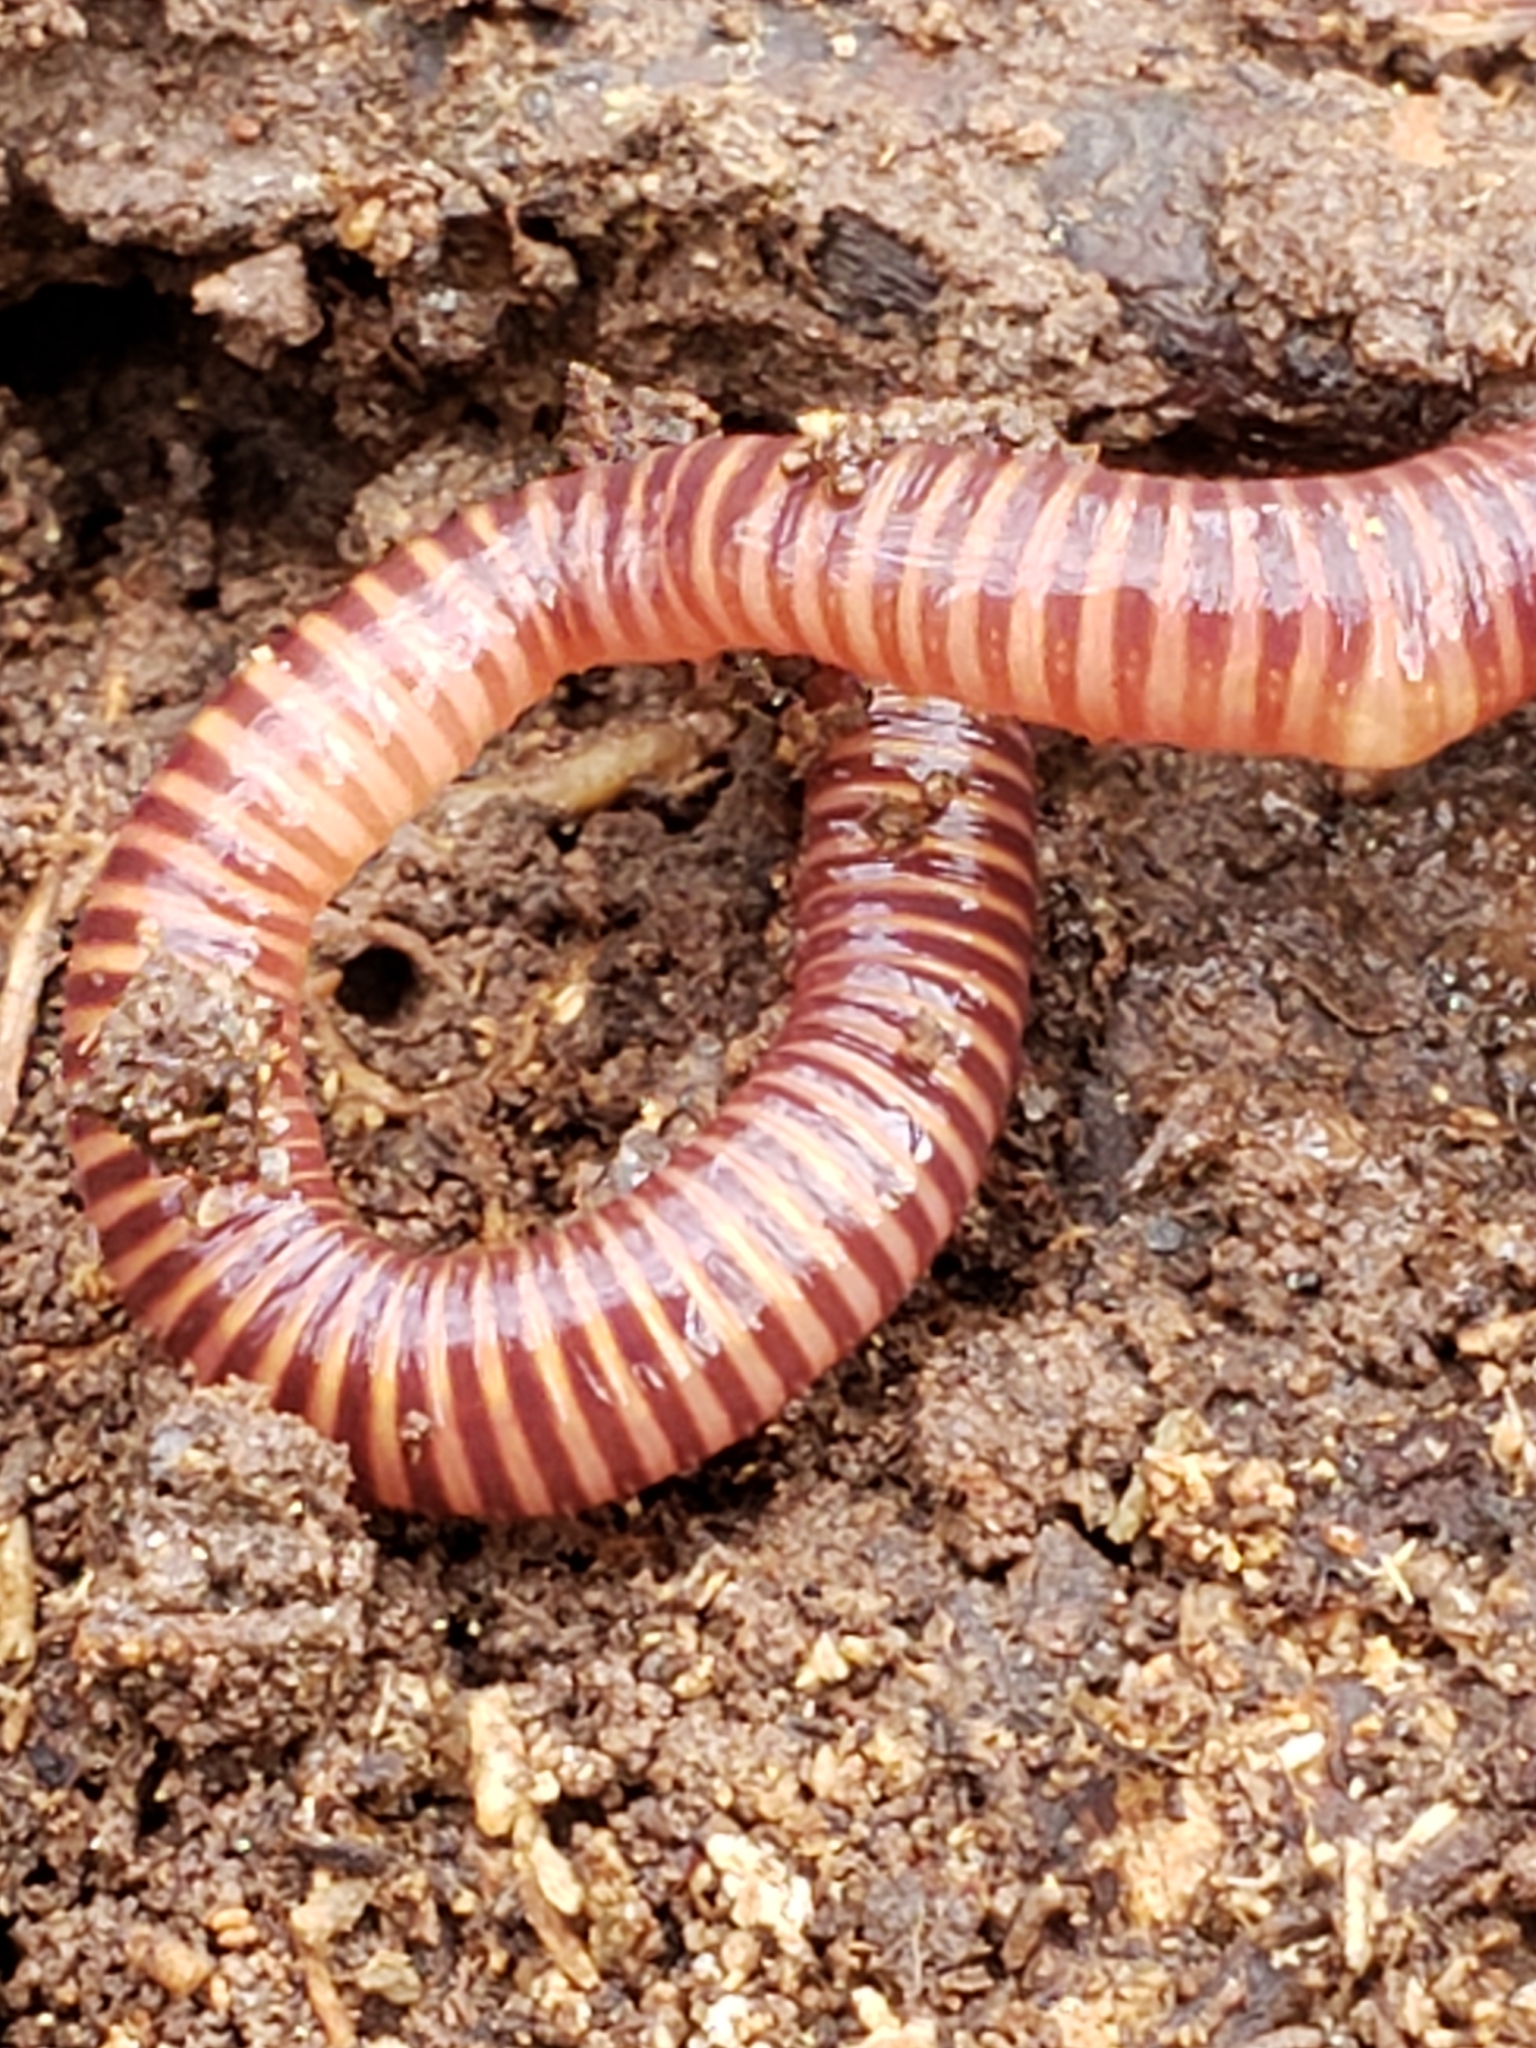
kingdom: Animalia
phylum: Annelida
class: Clitellata
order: Crassiclitellata
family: Lumbricidae
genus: Eisenia
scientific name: Eisenia fetida
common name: Red wiggler
